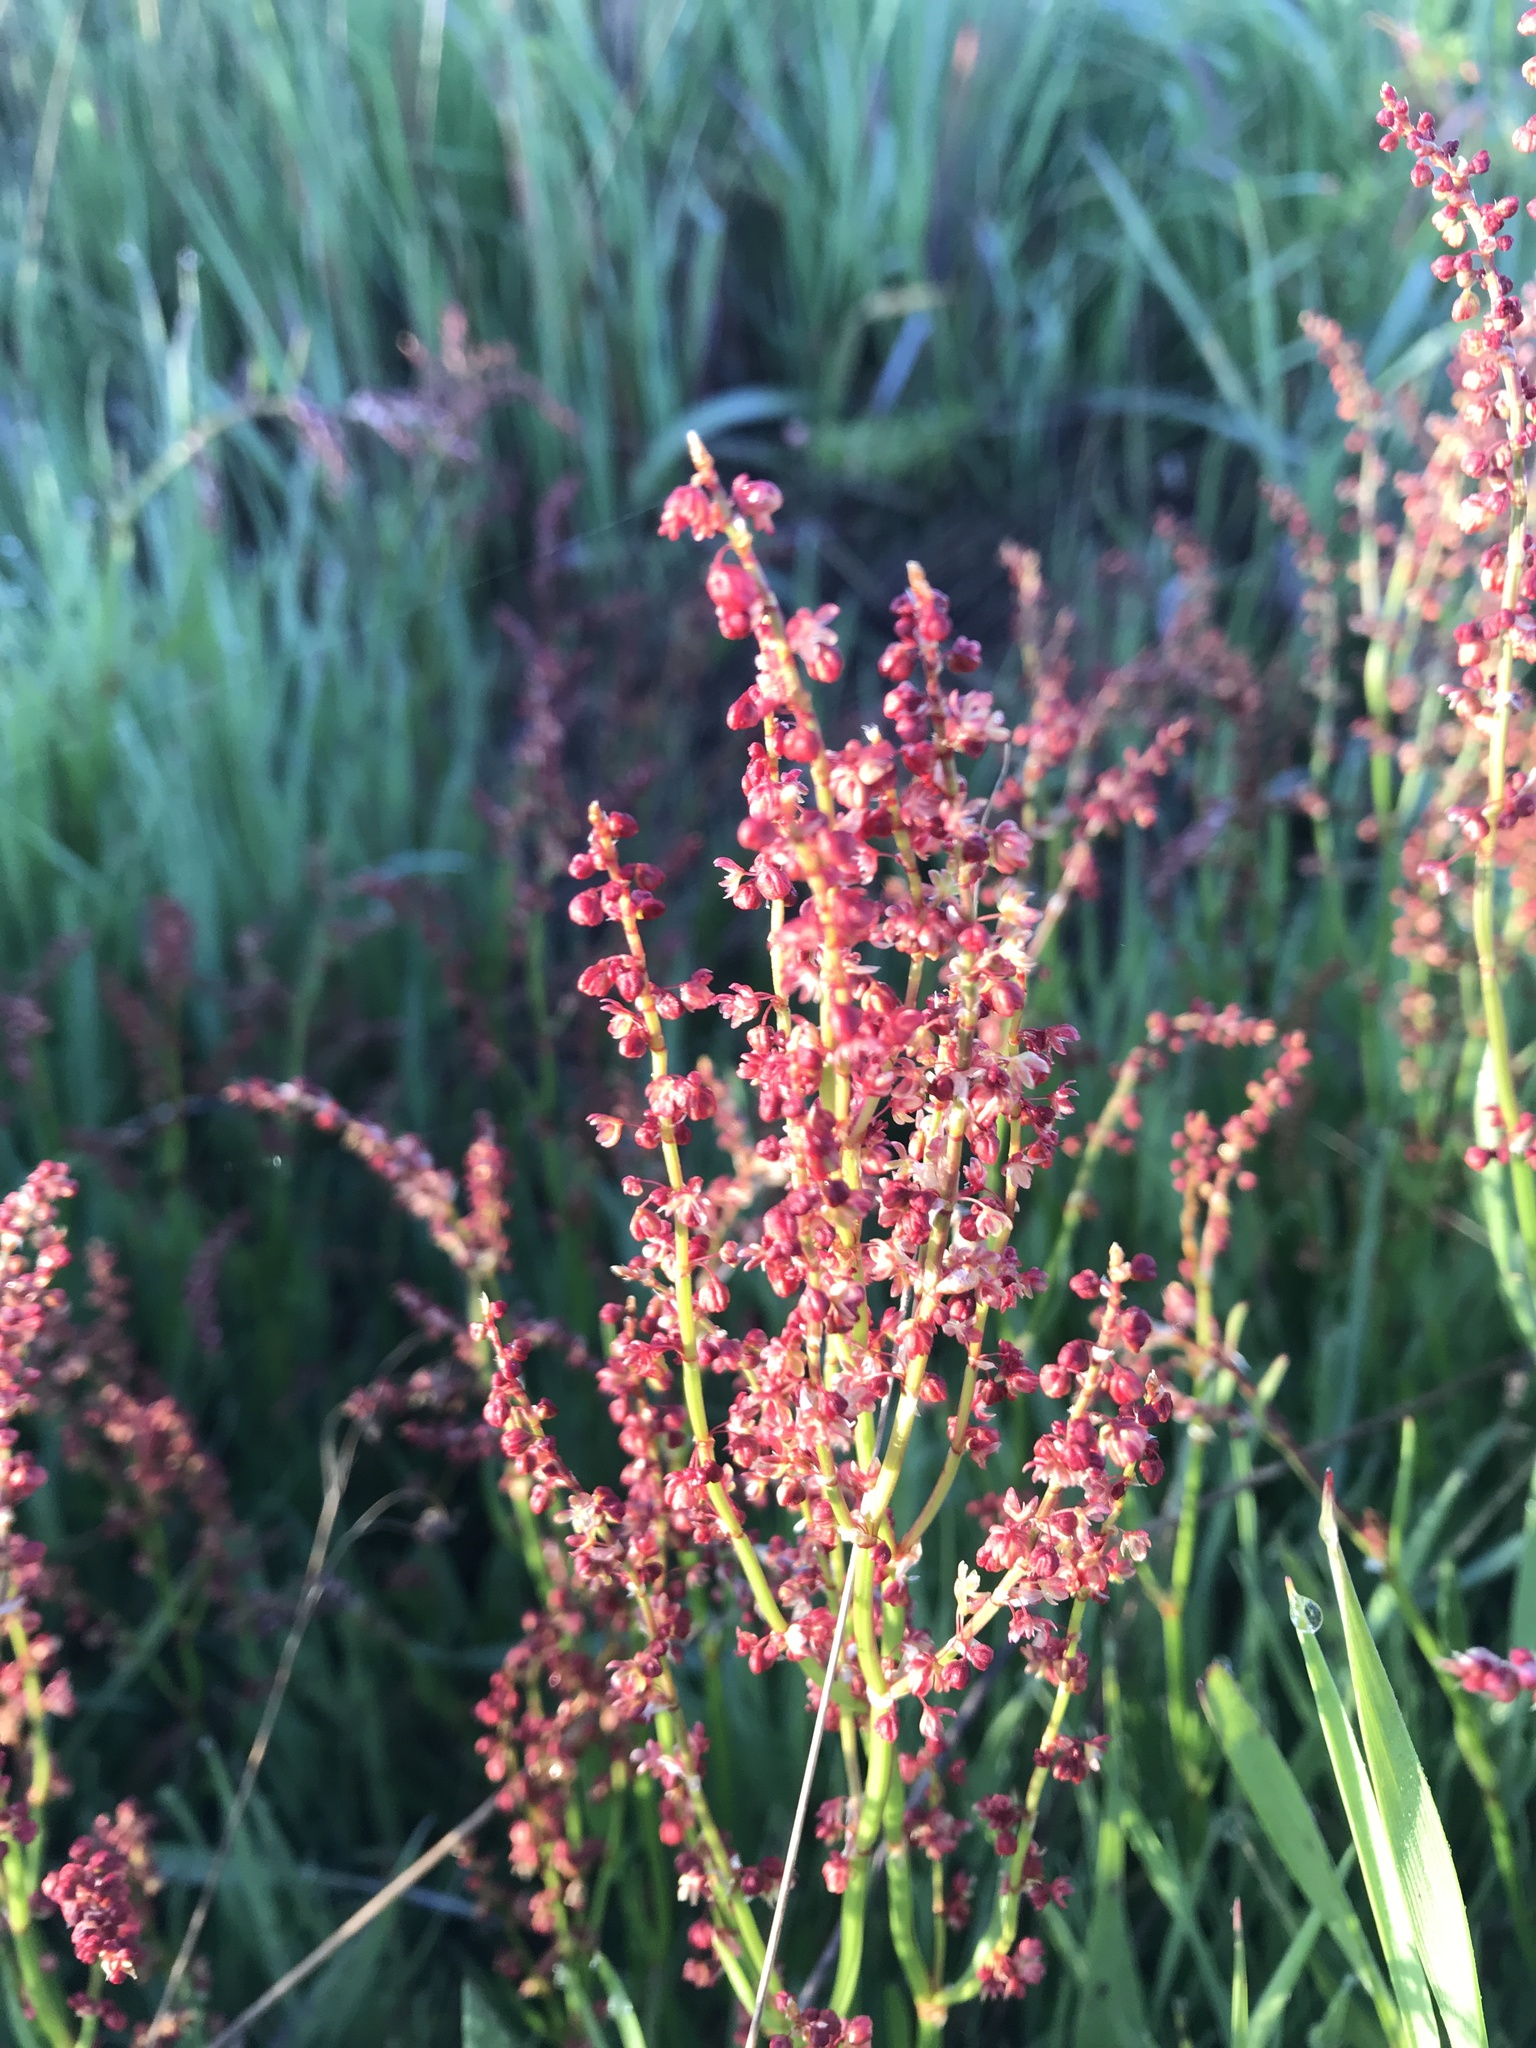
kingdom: Plantae
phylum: Tracheophyta
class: Magnoliopsida
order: Caryophyllales
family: Polygonaceae
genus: Rumex
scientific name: Rumex acetosella
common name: Common sheep sorrel
